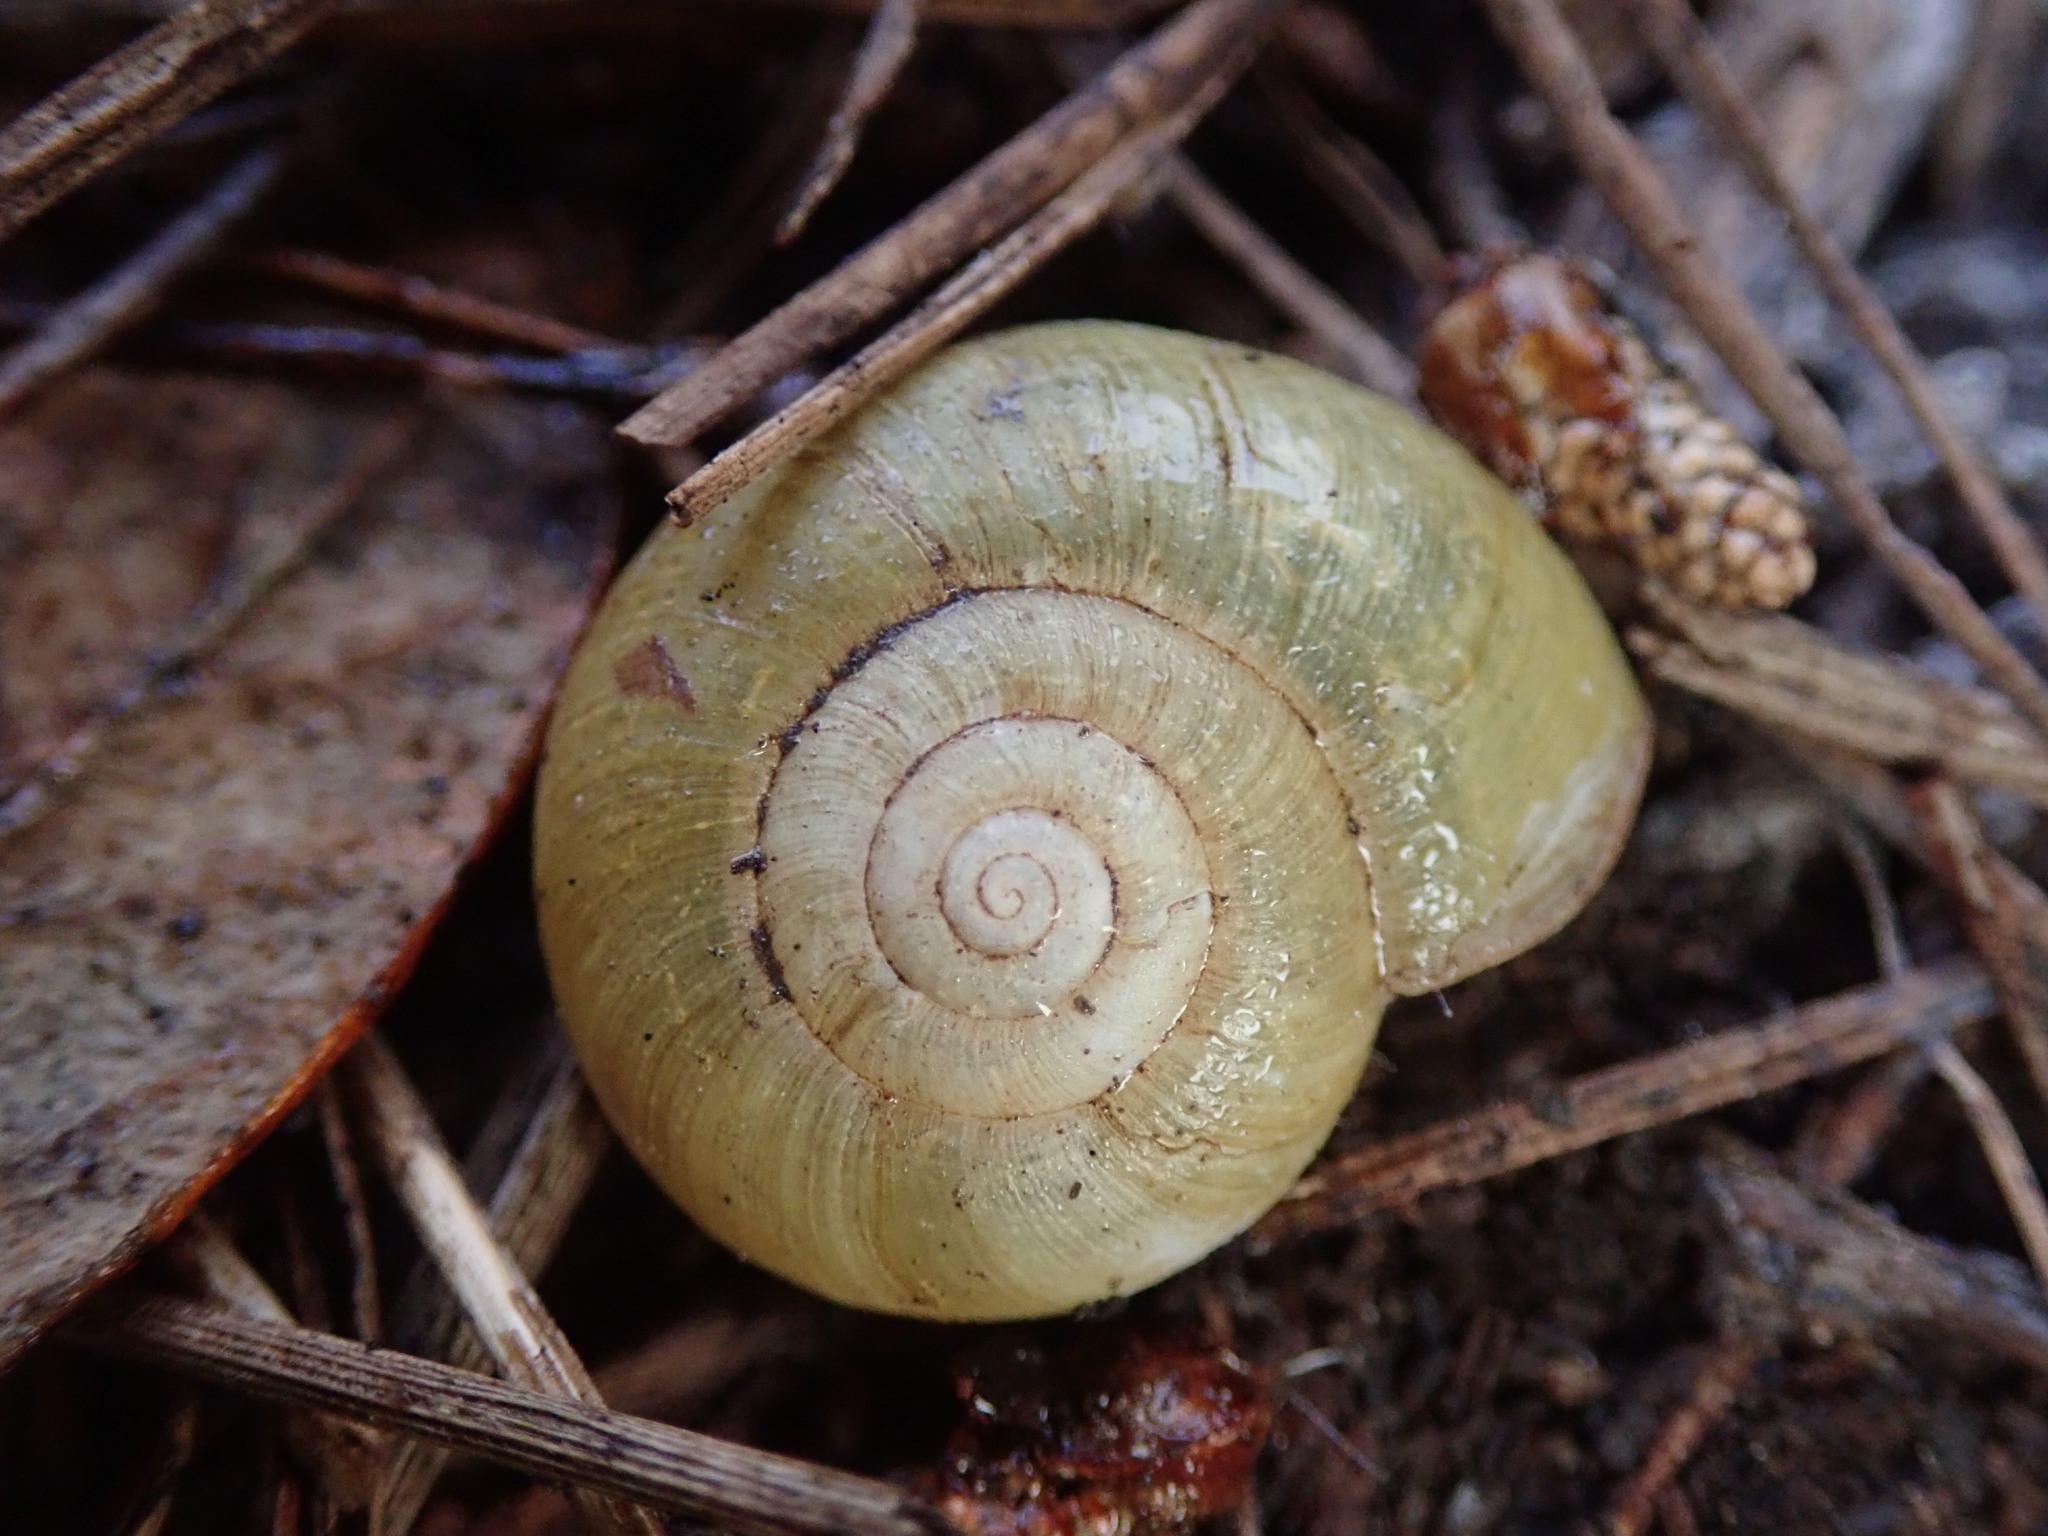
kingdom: Animalia
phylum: Mollusca
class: Gastropoda
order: Stylommatophora
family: Haplotrematidae
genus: Haplotrema
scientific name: Haplotrema minimum
